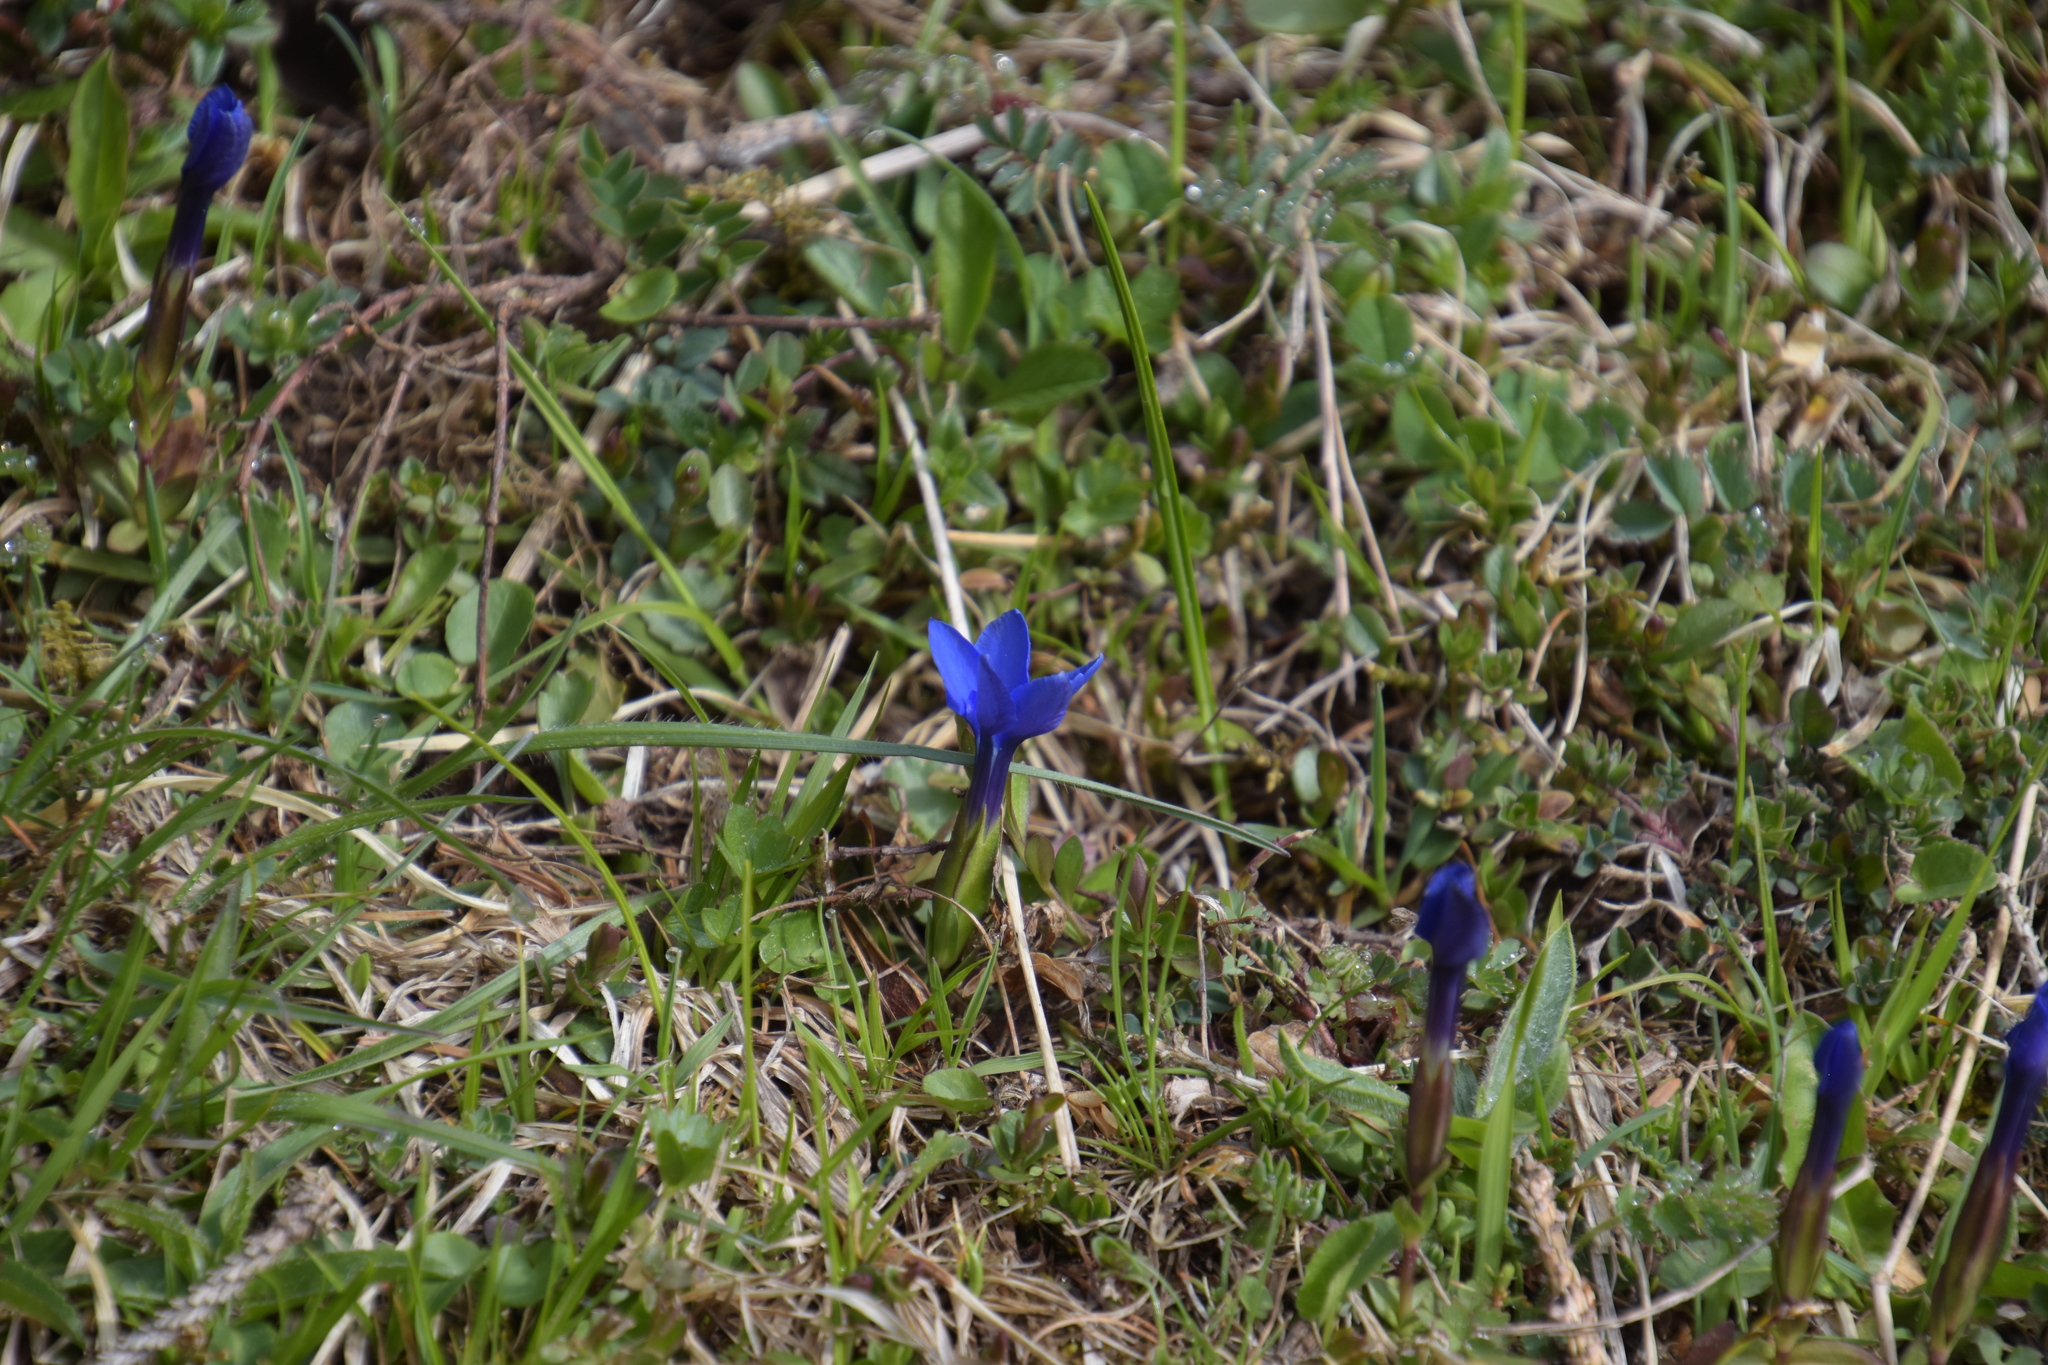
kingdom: Plantae
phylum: Tracheophyta
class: Magnoliopsida
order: Gentianales
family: Gentianaceae
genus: Gentiana
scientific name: Gentiana verna
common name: Spring gentian
